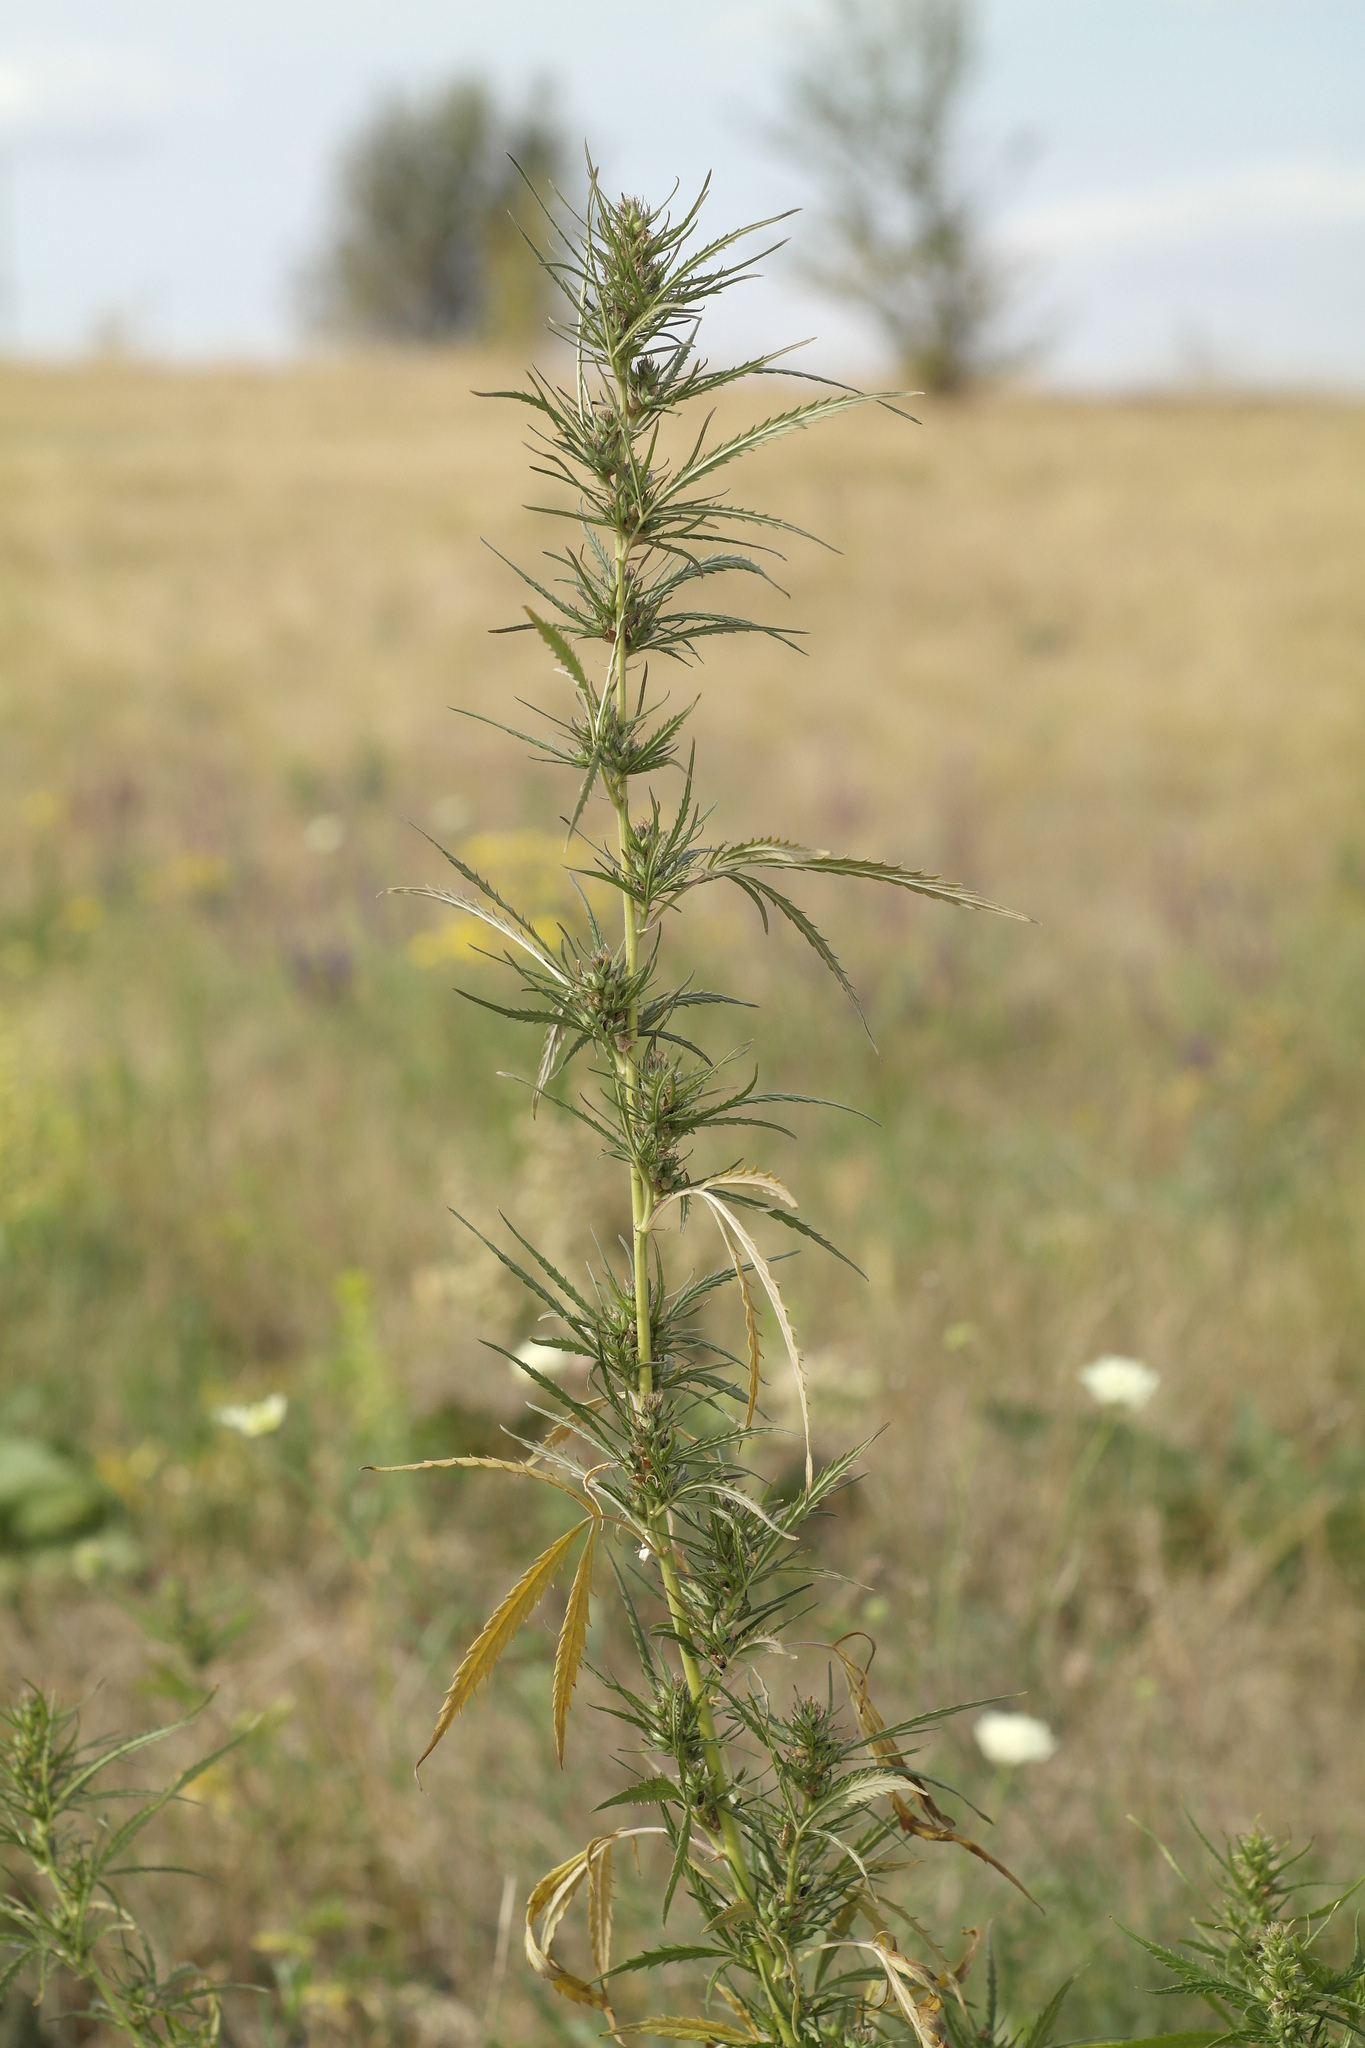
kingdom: Plantae
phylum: Tracheophyta
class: Magnoliopsida
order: Rosales
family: Cannabaceae
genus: Cannabis
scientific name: Cannabis sativa
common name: Hemp
